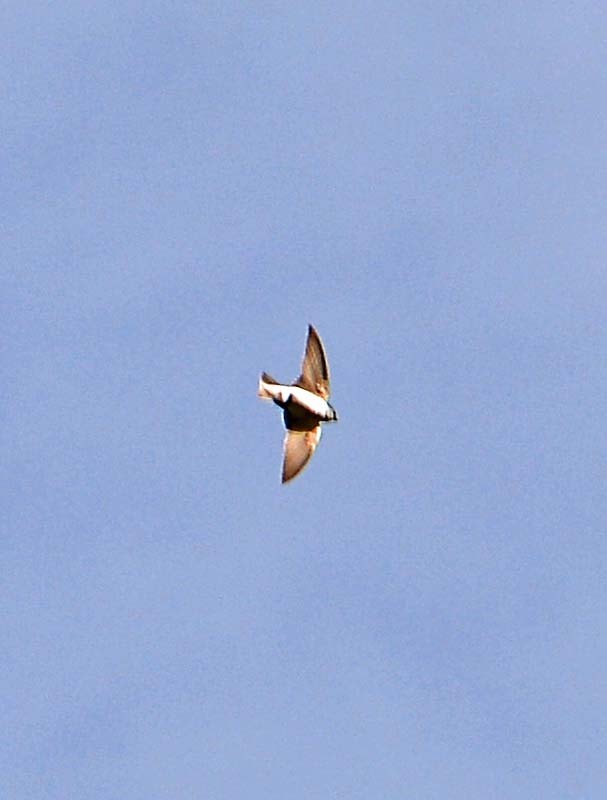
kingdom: Animalia
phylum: Chordata
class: Aves
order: Passeriformes
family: Hirundinidae
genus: Tachycineta
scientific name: Tachycineta thalassina
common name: Violet-green swallow
